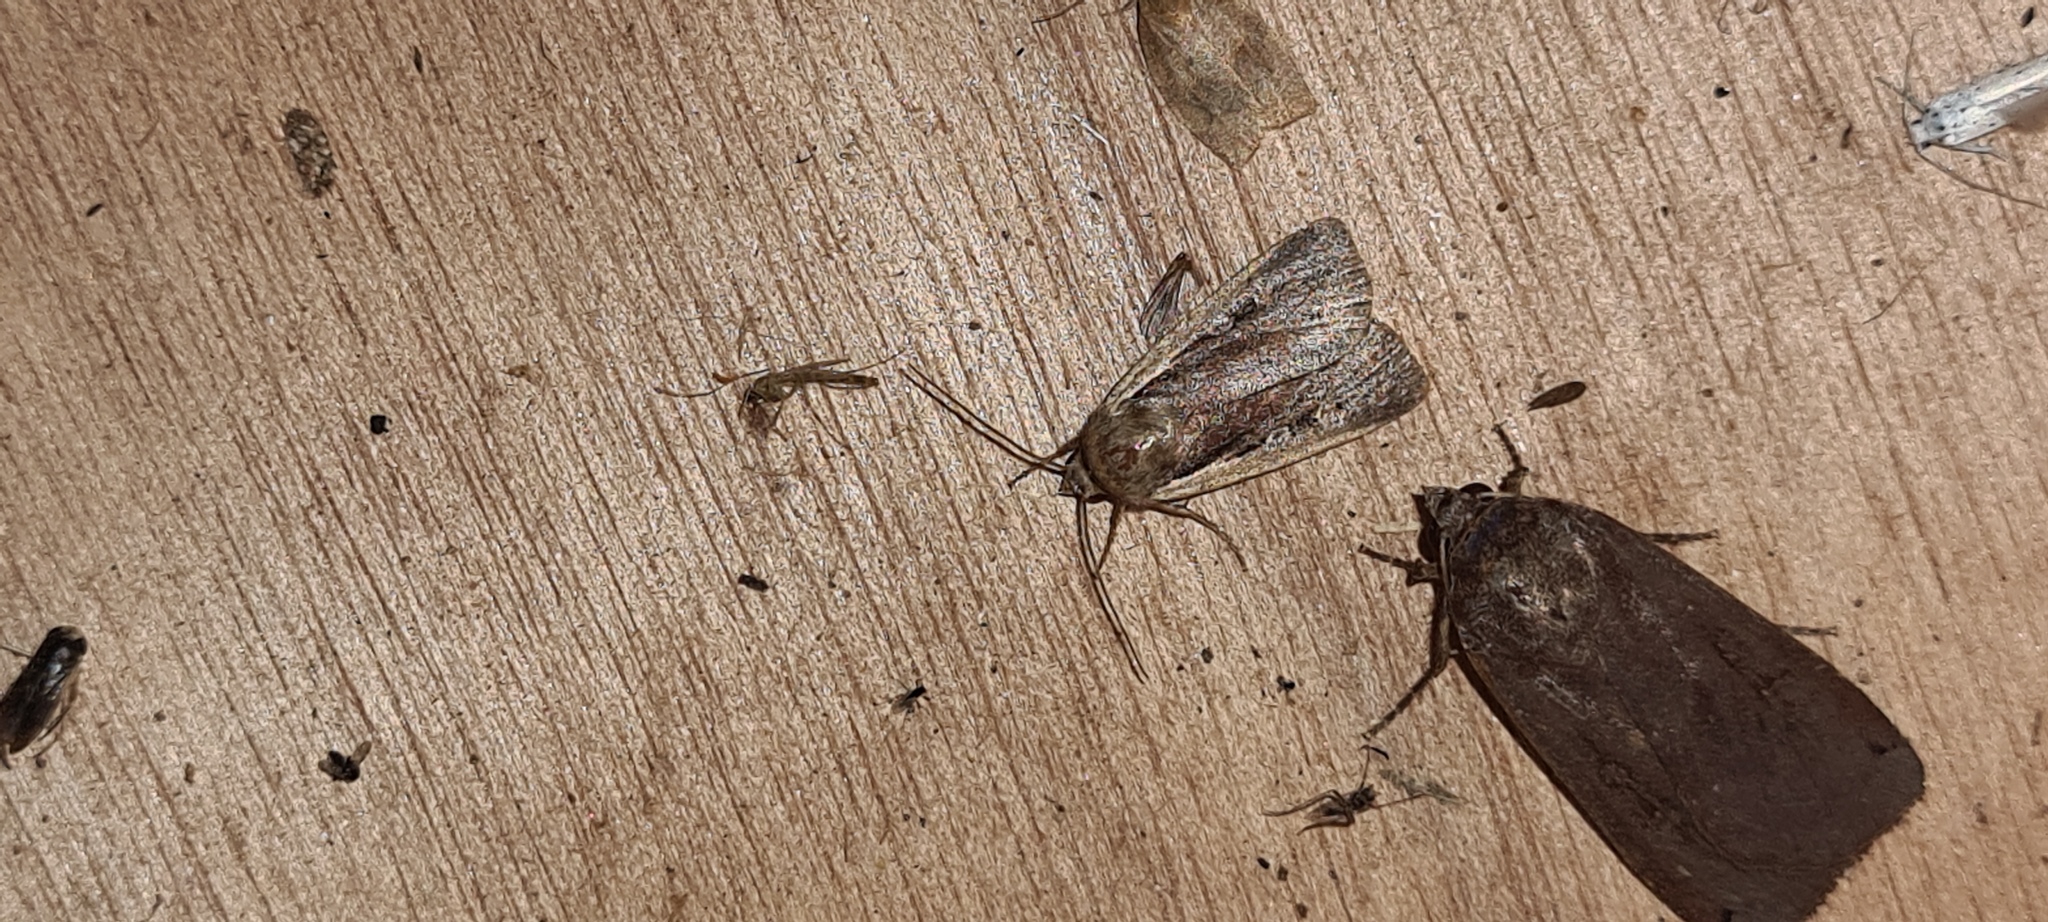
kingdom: Animalia
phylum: Arthropoda
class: Insecta
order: Lepidoptera
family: Noctuidae
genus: Ochropleura
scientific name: Ochropleura plecta
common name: Flame shoulder
